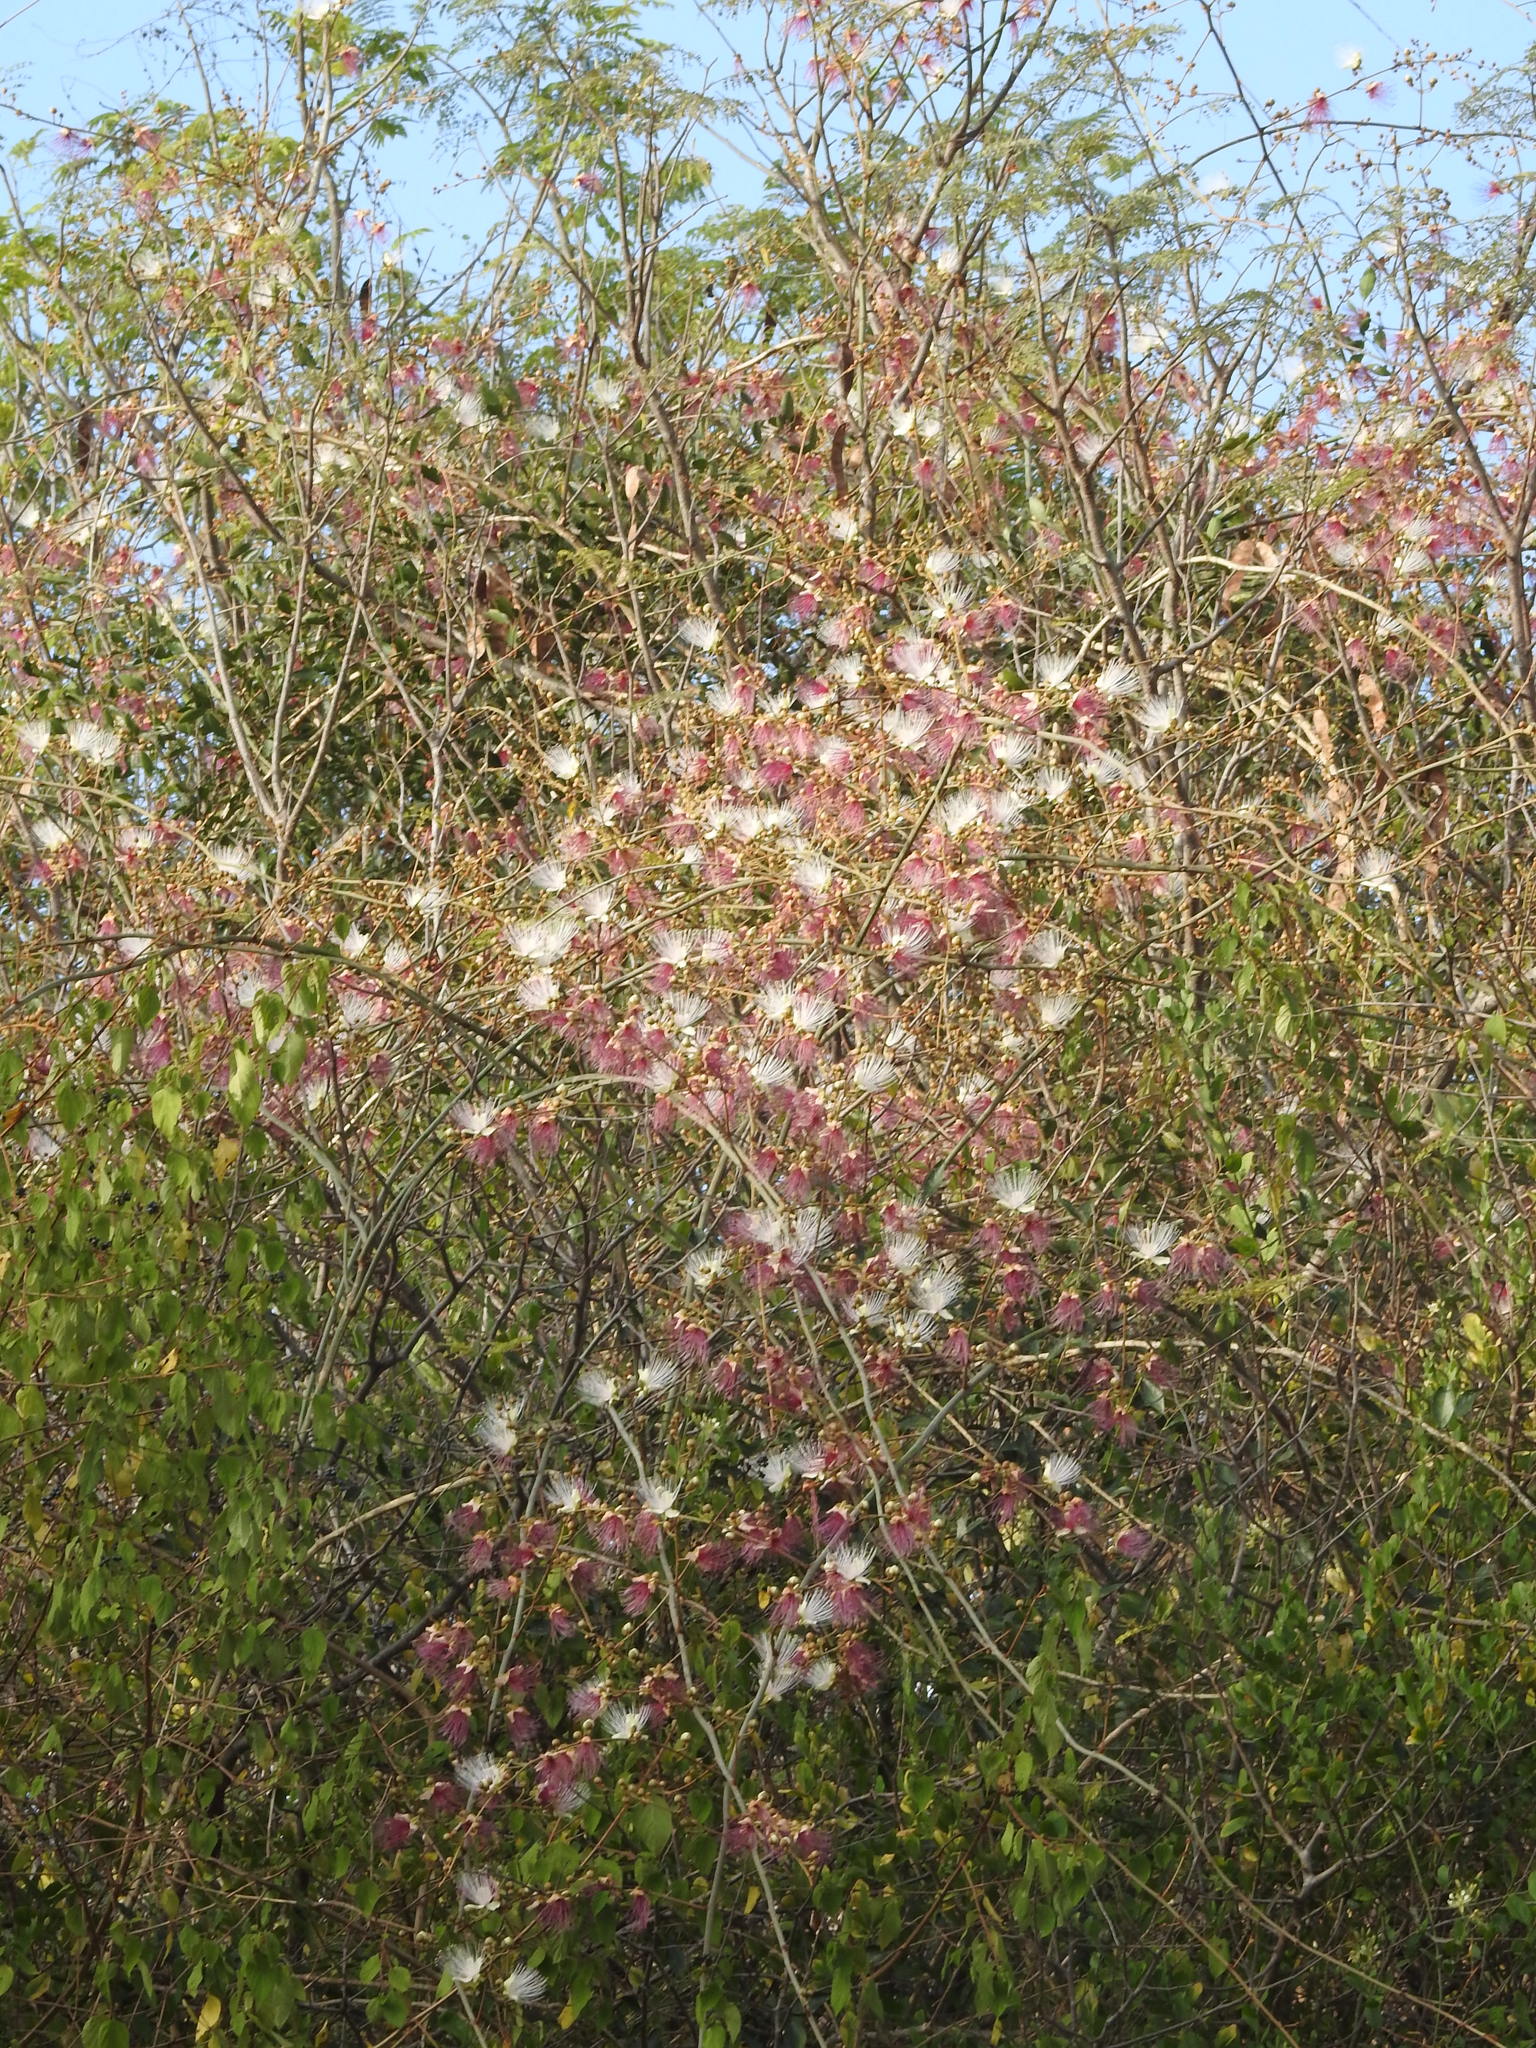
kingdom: Plantae
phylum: Tracheophyta
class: Magnoliopsida
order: Brassicales
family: Capparaceae
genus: Capparis
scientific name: Capparis zeylanica
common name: Ceylon caper
